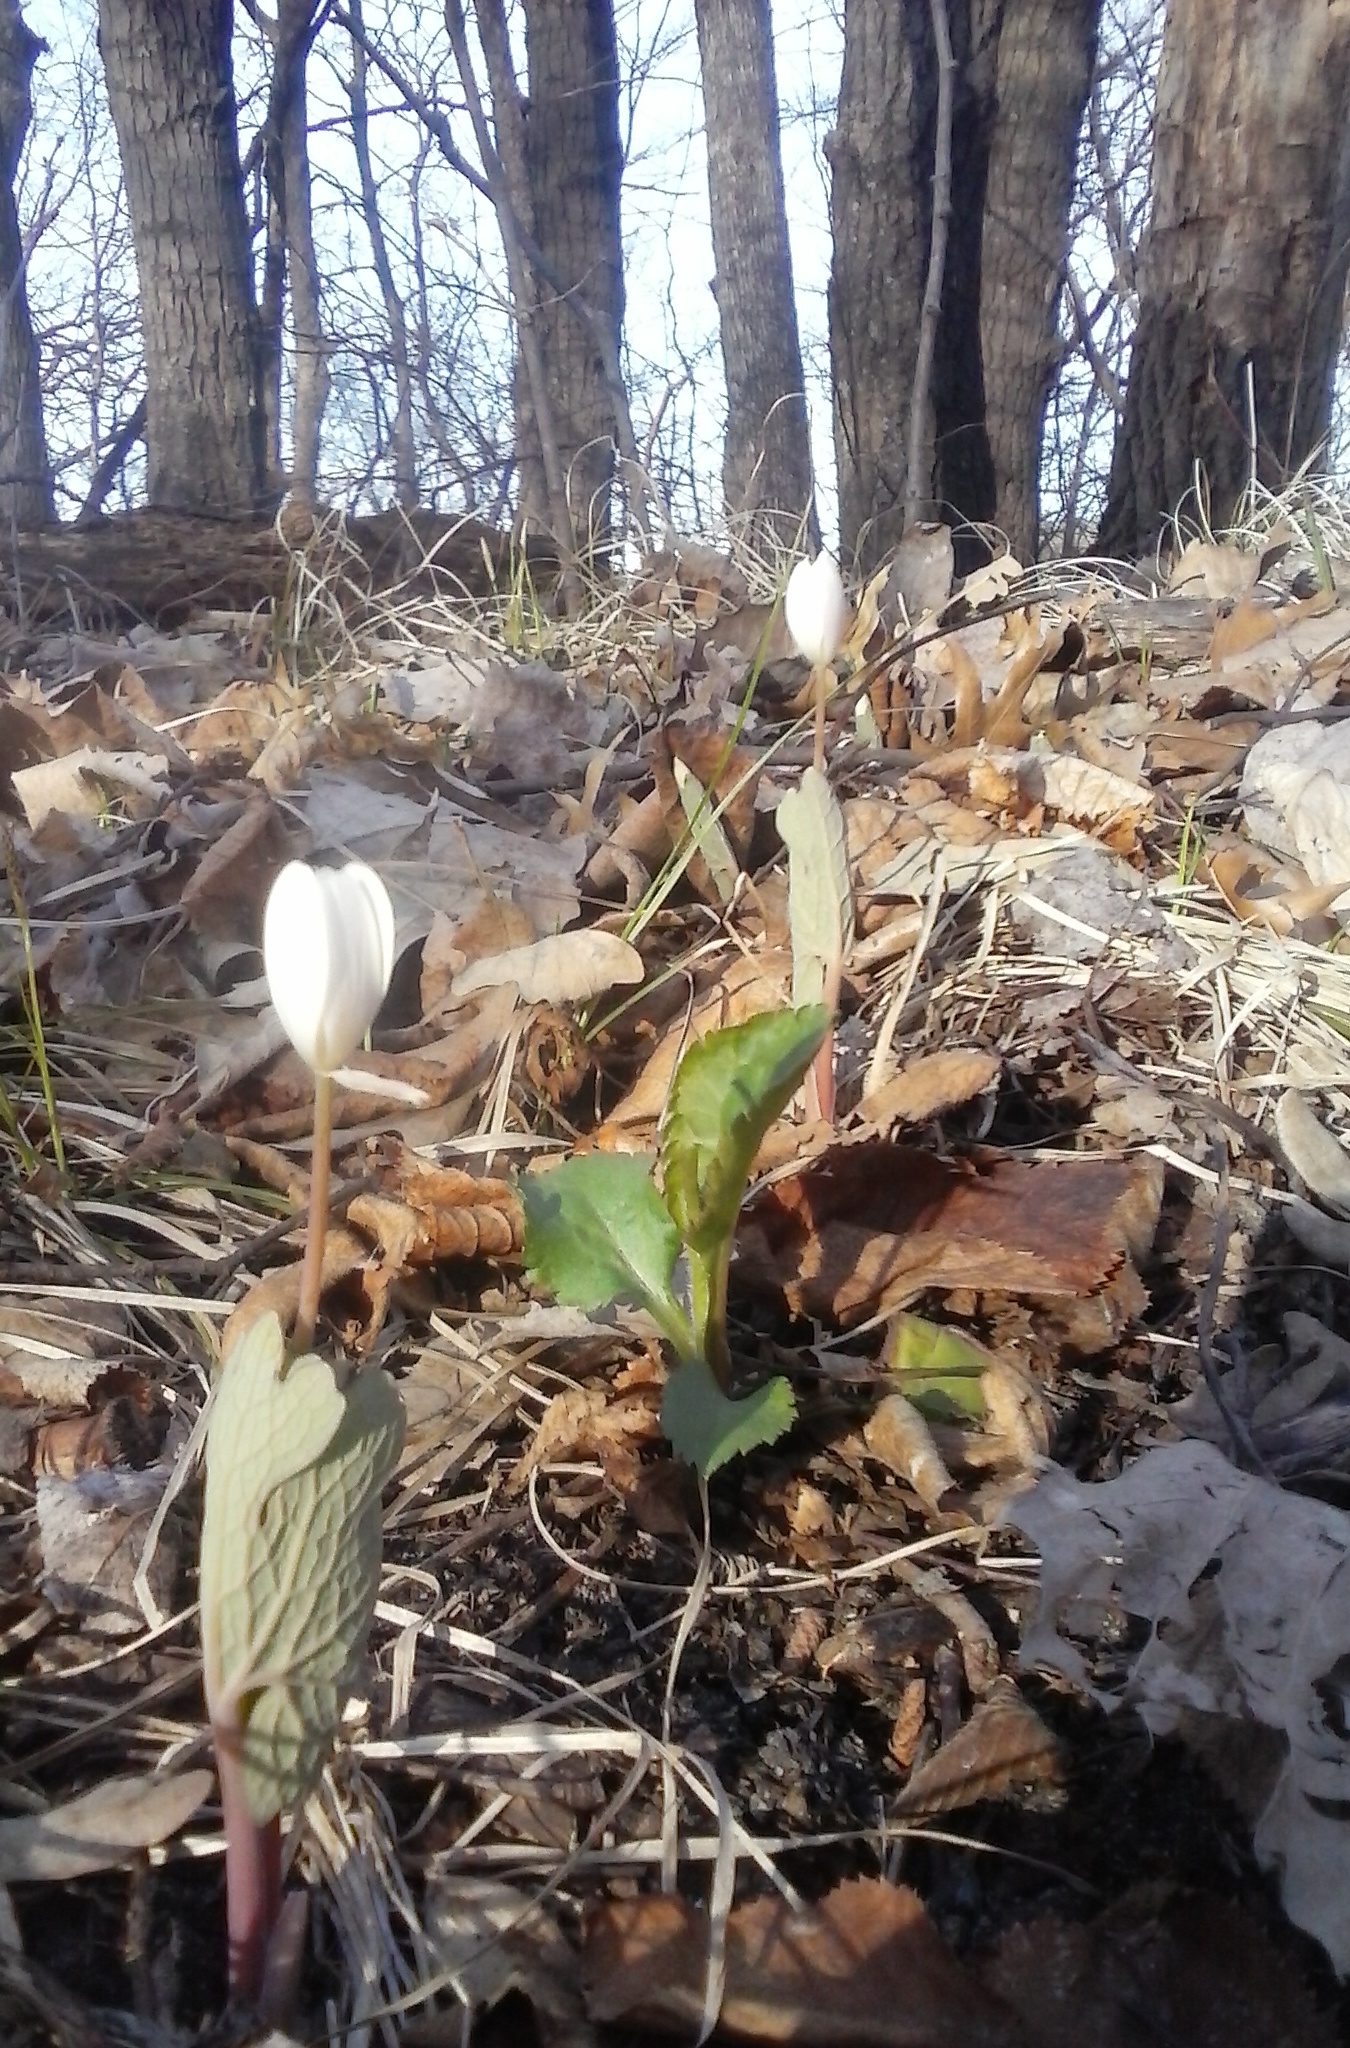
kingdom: Plantae
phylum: Tracheophyta
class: Magnoliopsida
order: Ranunculales
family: Papaveraceae
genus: Sanguinaria
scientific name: Sanguinaria canadensis
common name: Bloodroot
